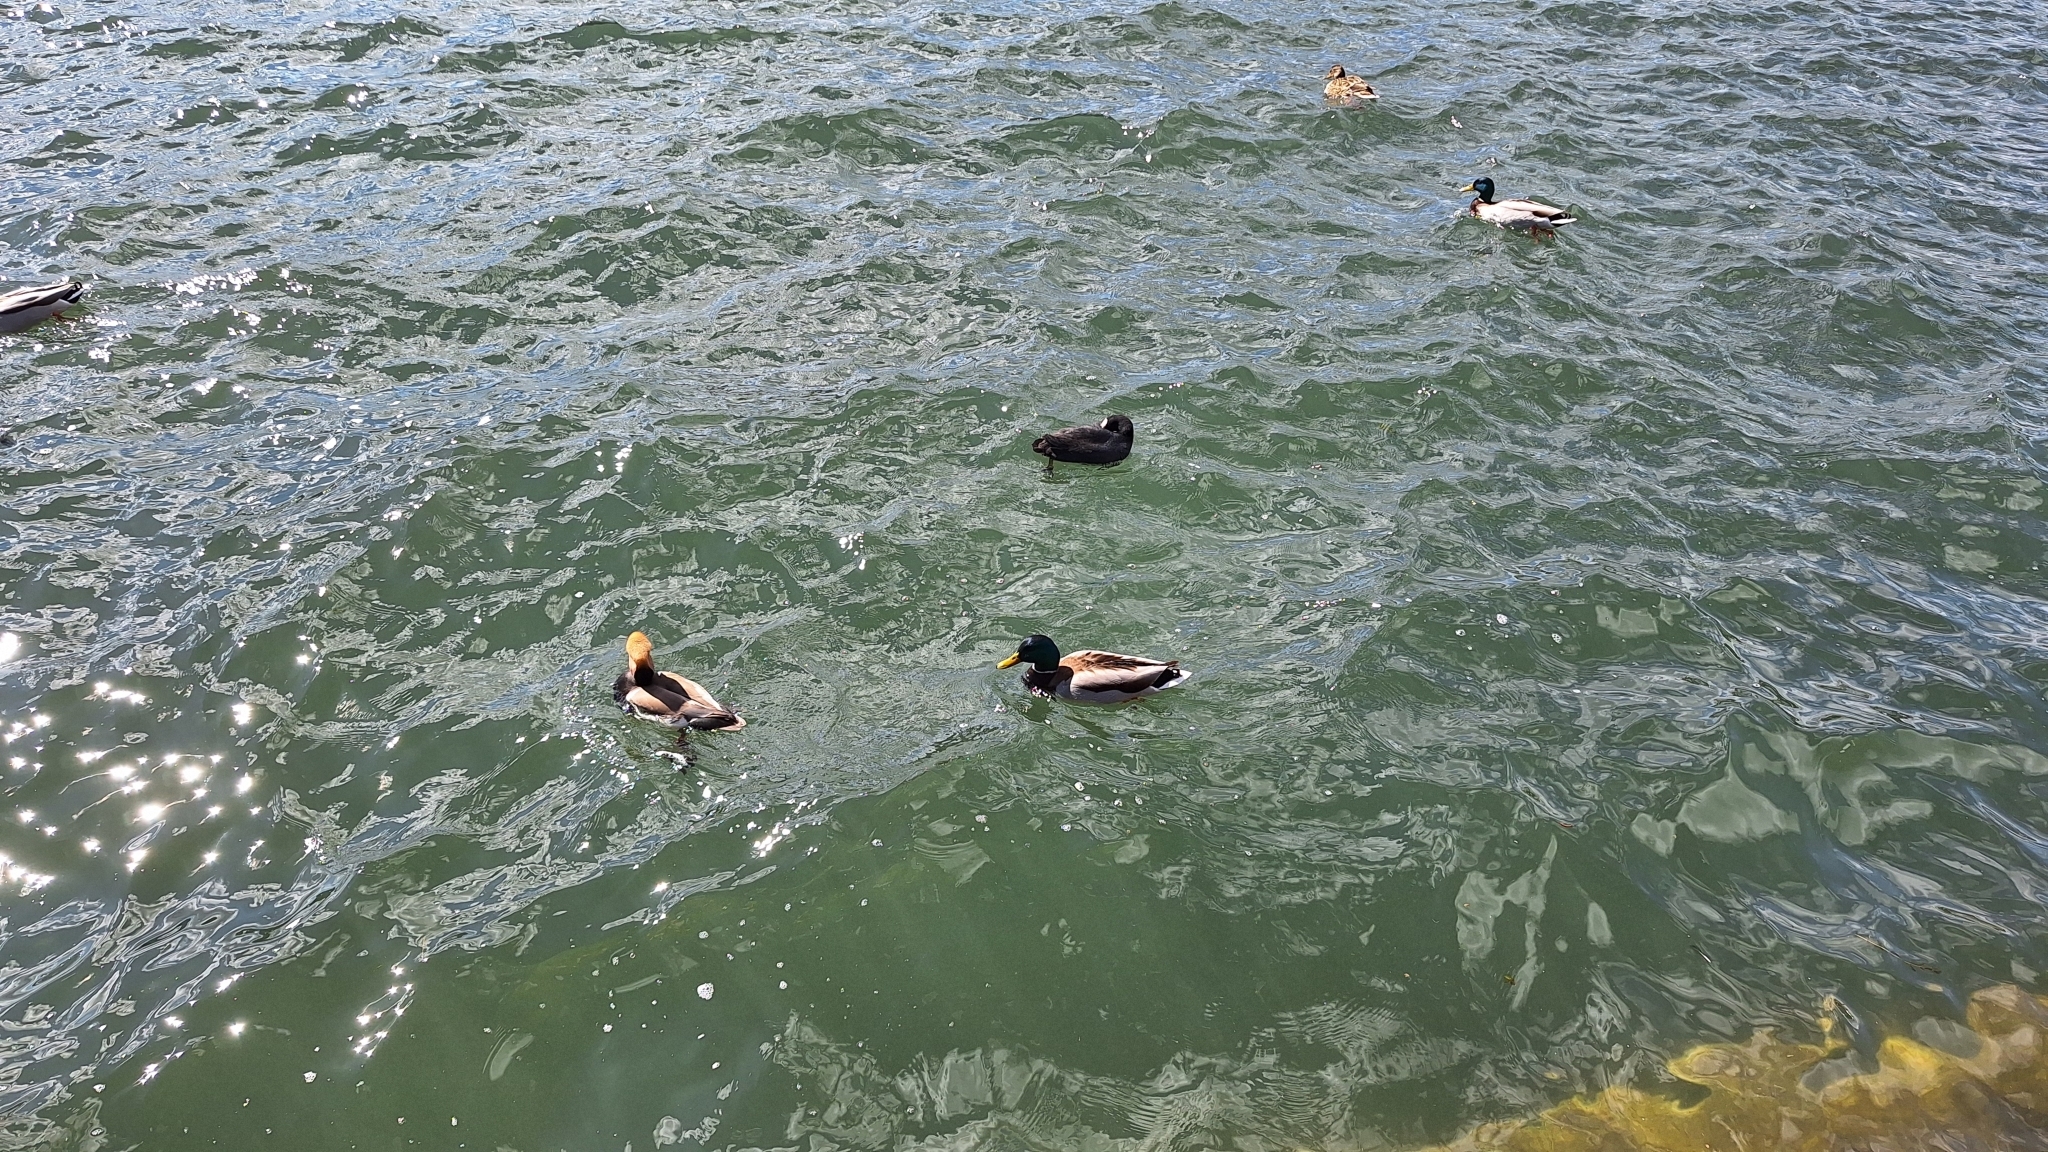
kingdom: Animalia
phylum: Chordata
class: Aves
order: Gruiformes
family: Rallidae
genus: Fulica
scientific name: Fulica atra
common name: Eurasian coot
